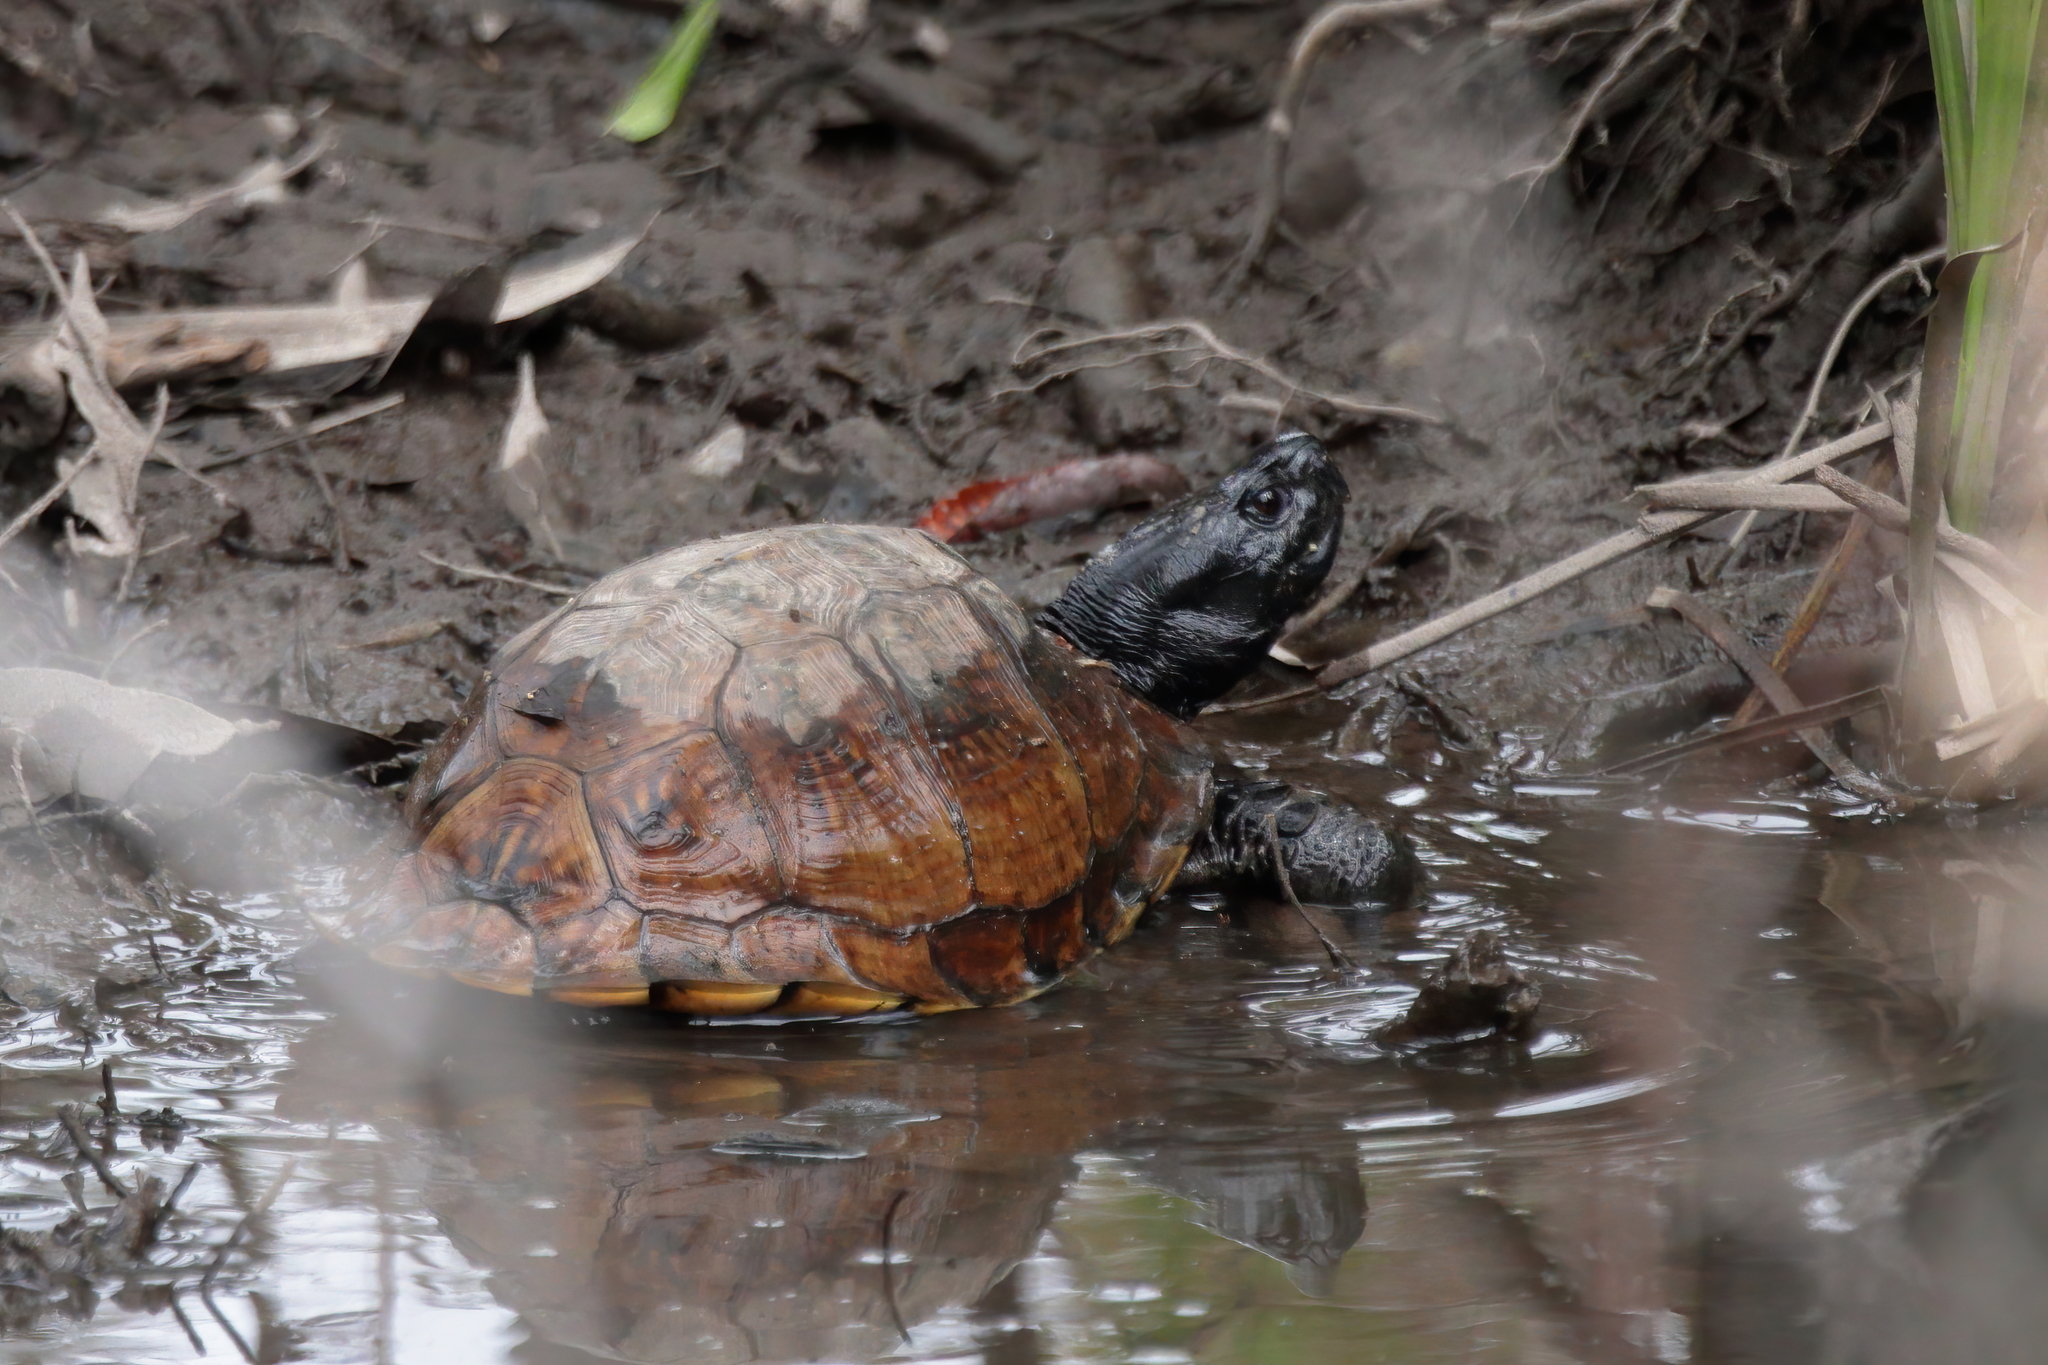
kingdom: Animalia
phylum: Chordata
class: Testudines
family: Emydidae
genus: Terrapene
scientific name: Terrapene carolina
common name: Common box turtle
